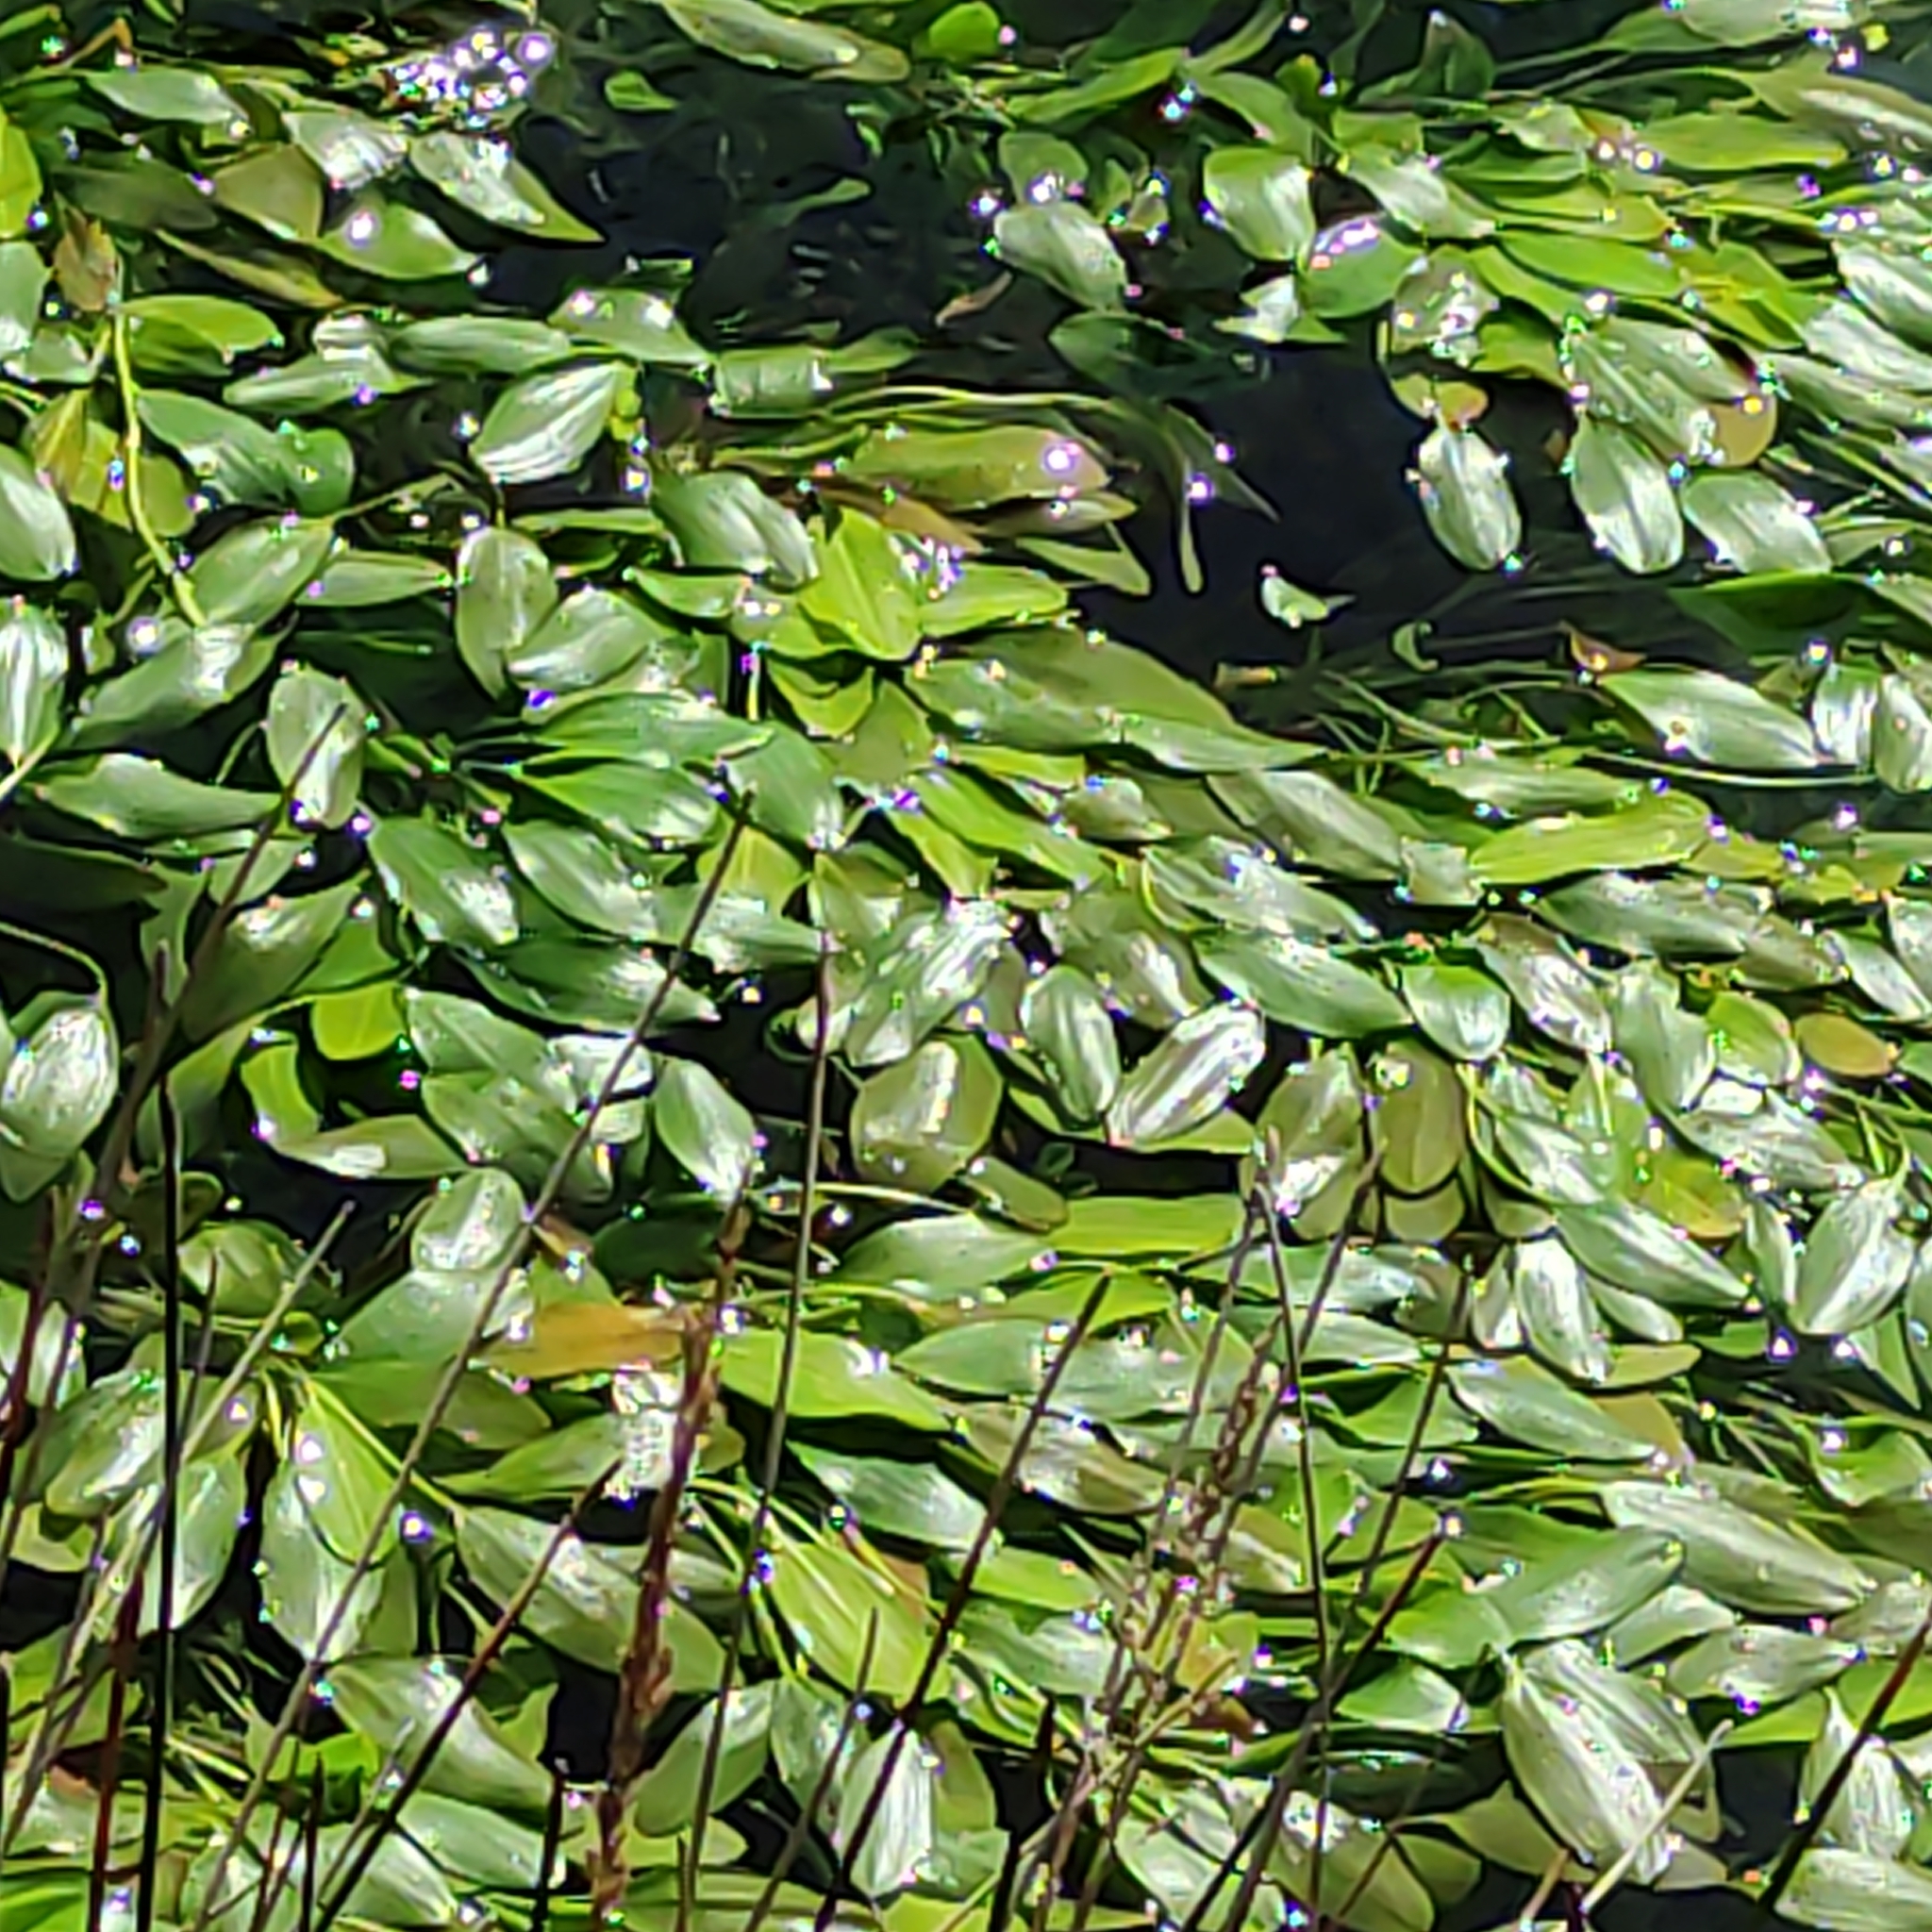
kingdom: Plantae
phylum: Tracheophyta
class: Liliopsida
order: Alismatales
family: Potamogetonaceae
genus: Potamogeton
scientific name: Potamogeton cheesemanii
